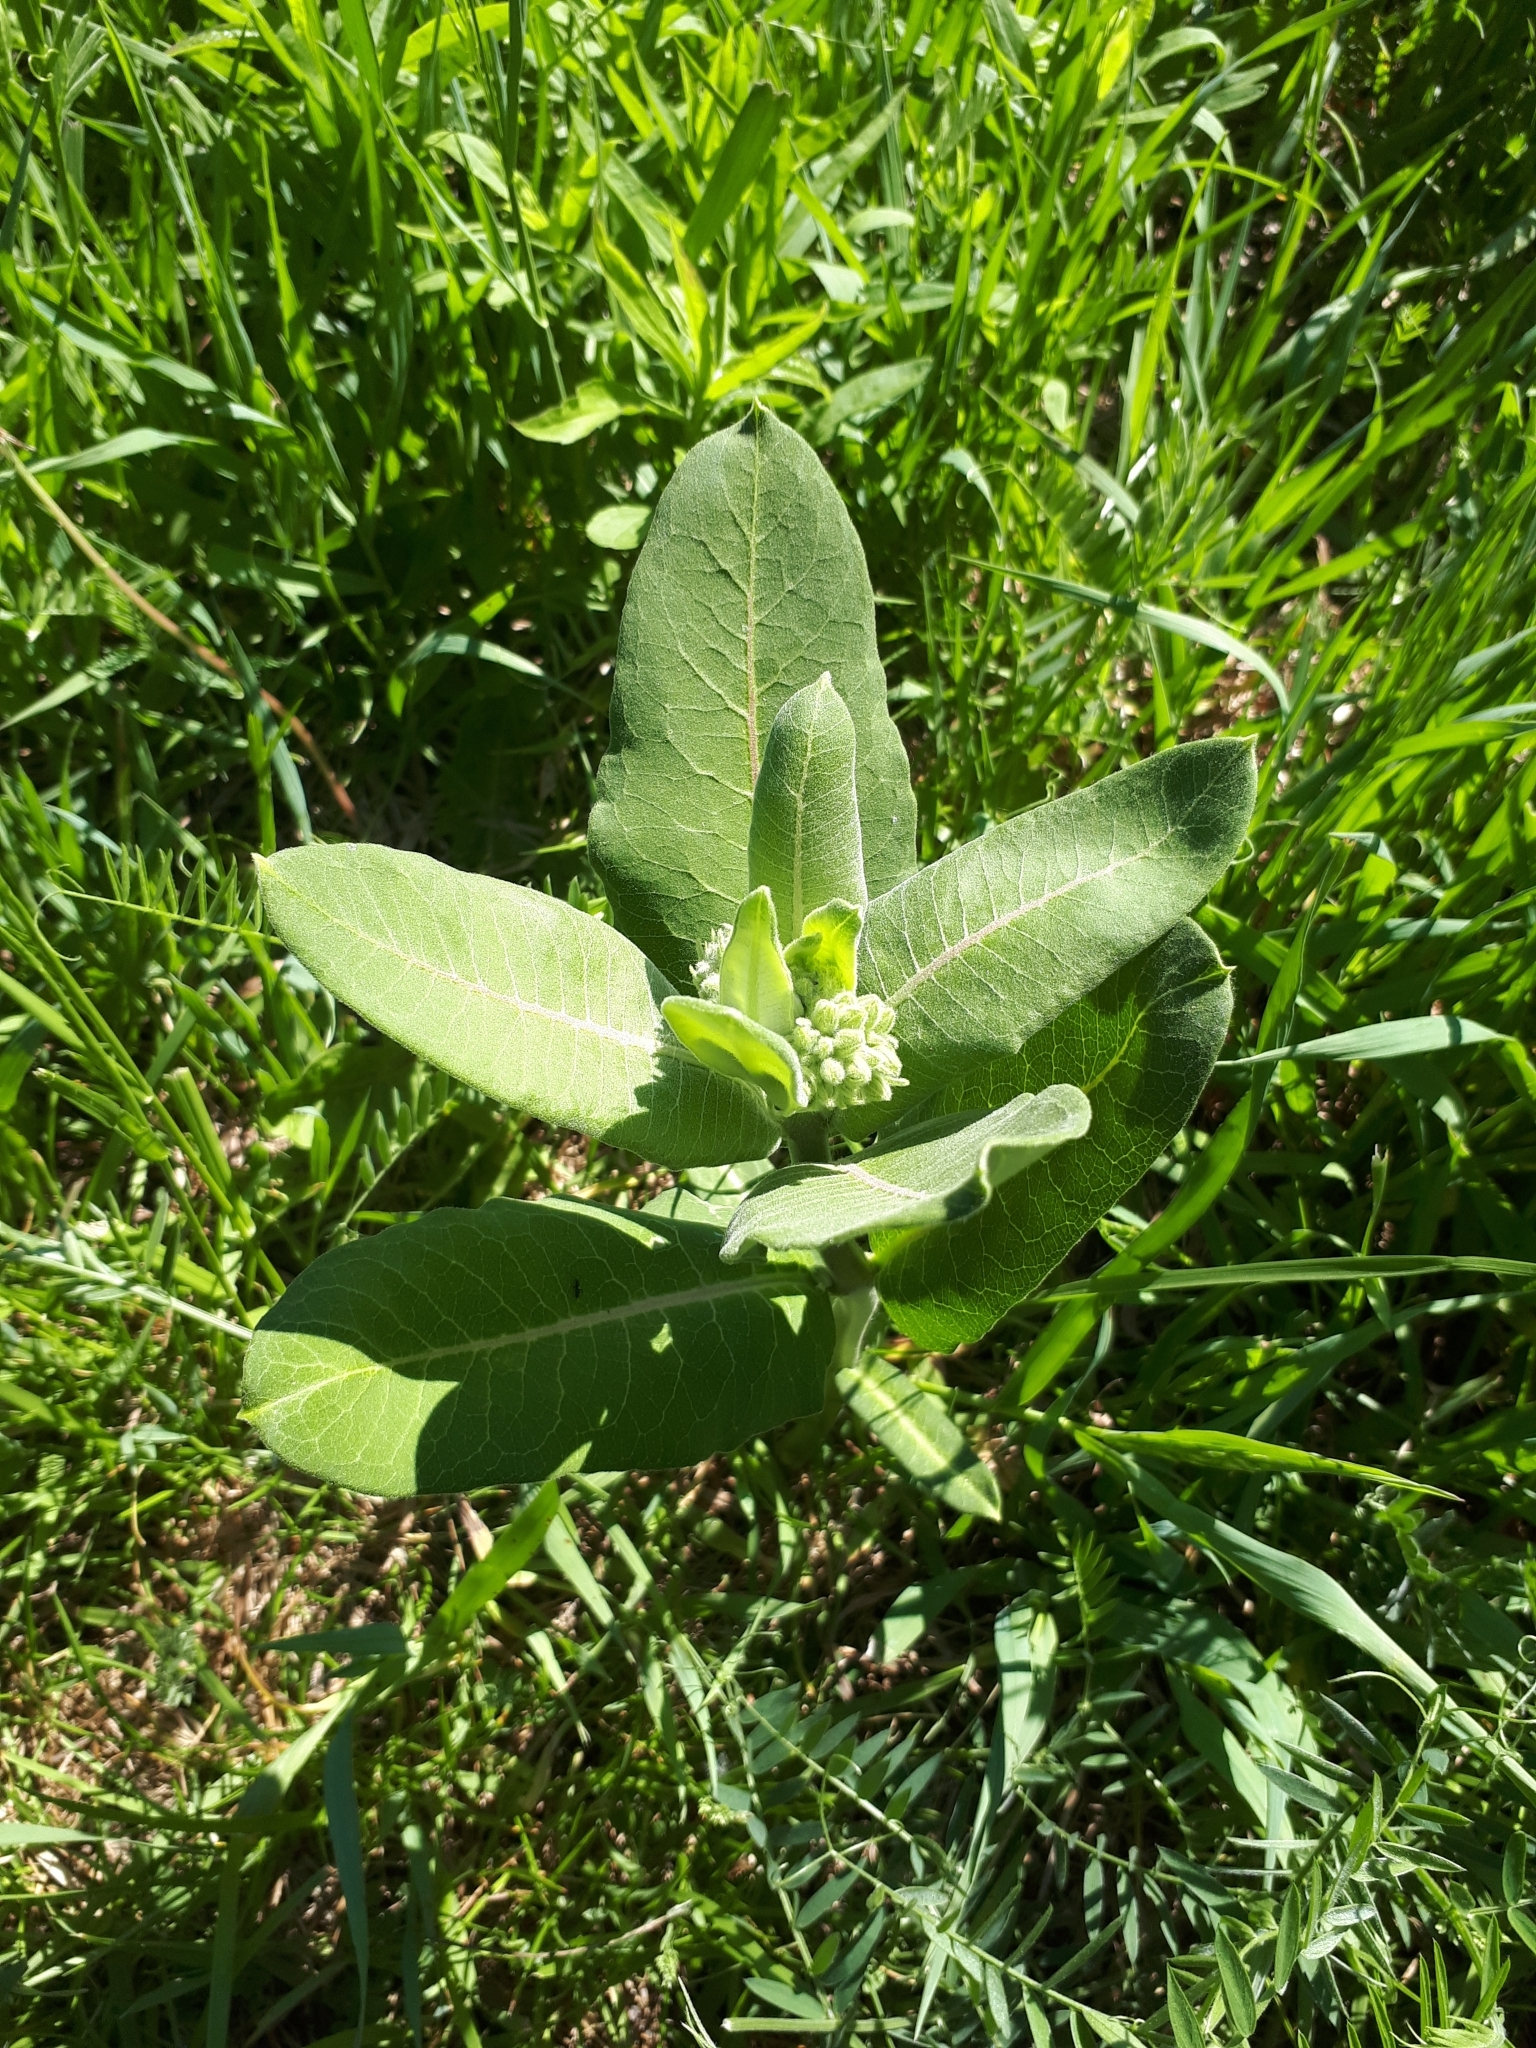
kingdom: Plantae
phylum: Tracheophyta
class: Magnoliopsida
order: Gentianales
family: Apocynaceae
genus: Asclepias
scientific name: Asclepias syriaca
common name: Common milkweed
